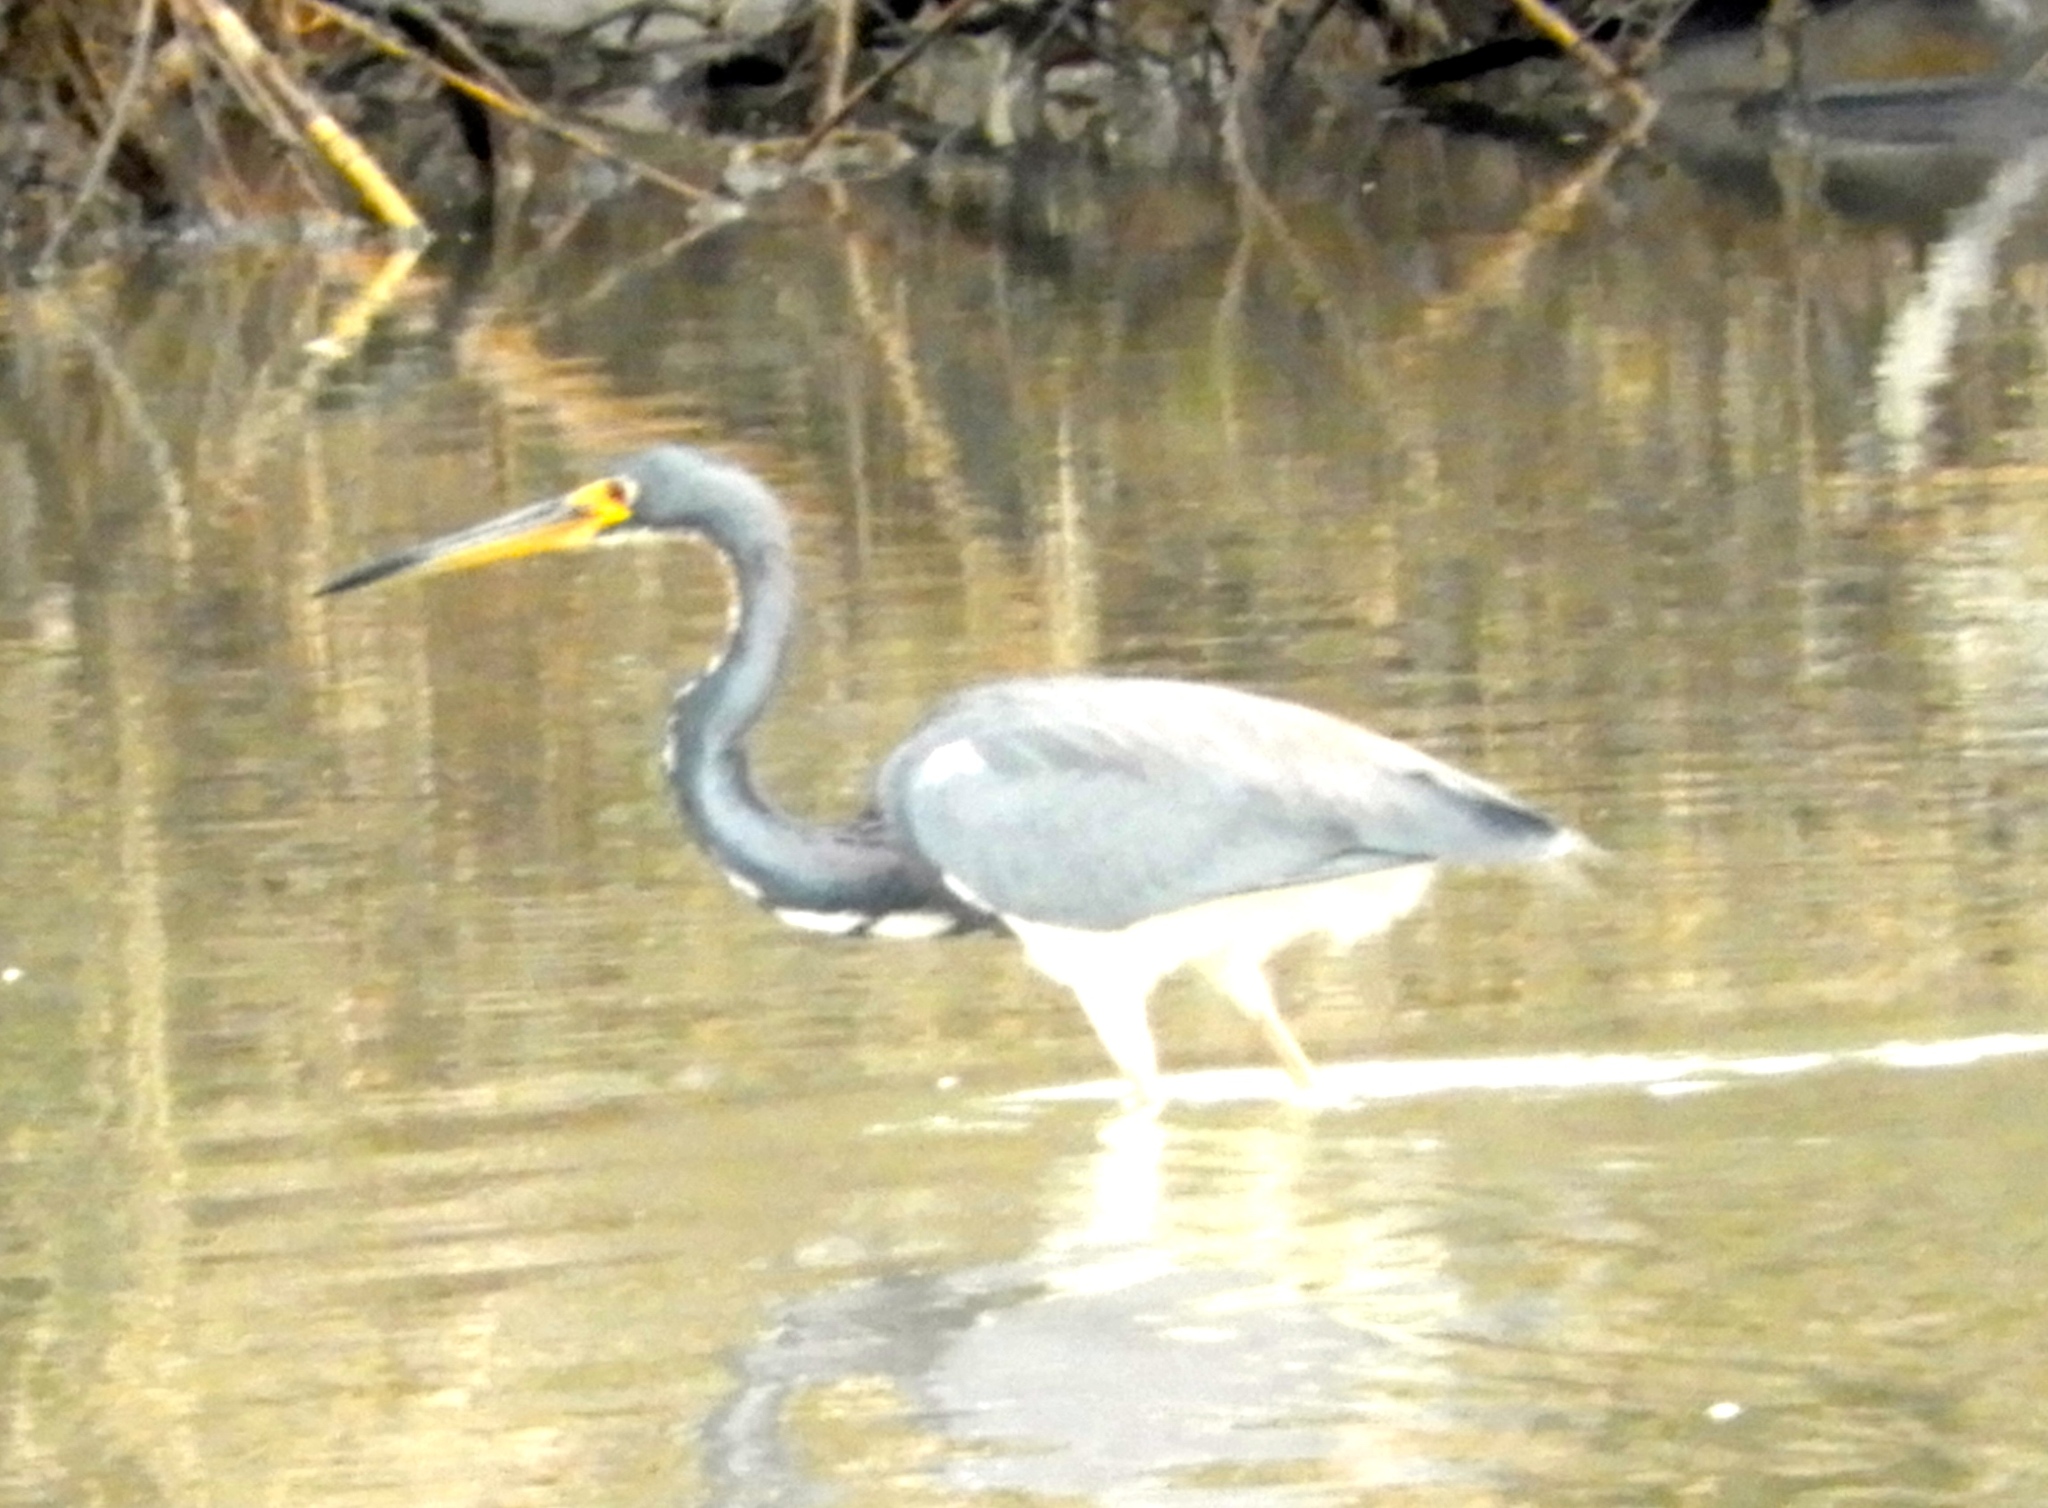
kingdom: Animalia
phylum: Chordata
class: Aves
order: Pelecaniformes
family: Ardeidae
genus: Egretta
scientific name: Egretta tricolor
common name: Tricolored heron
